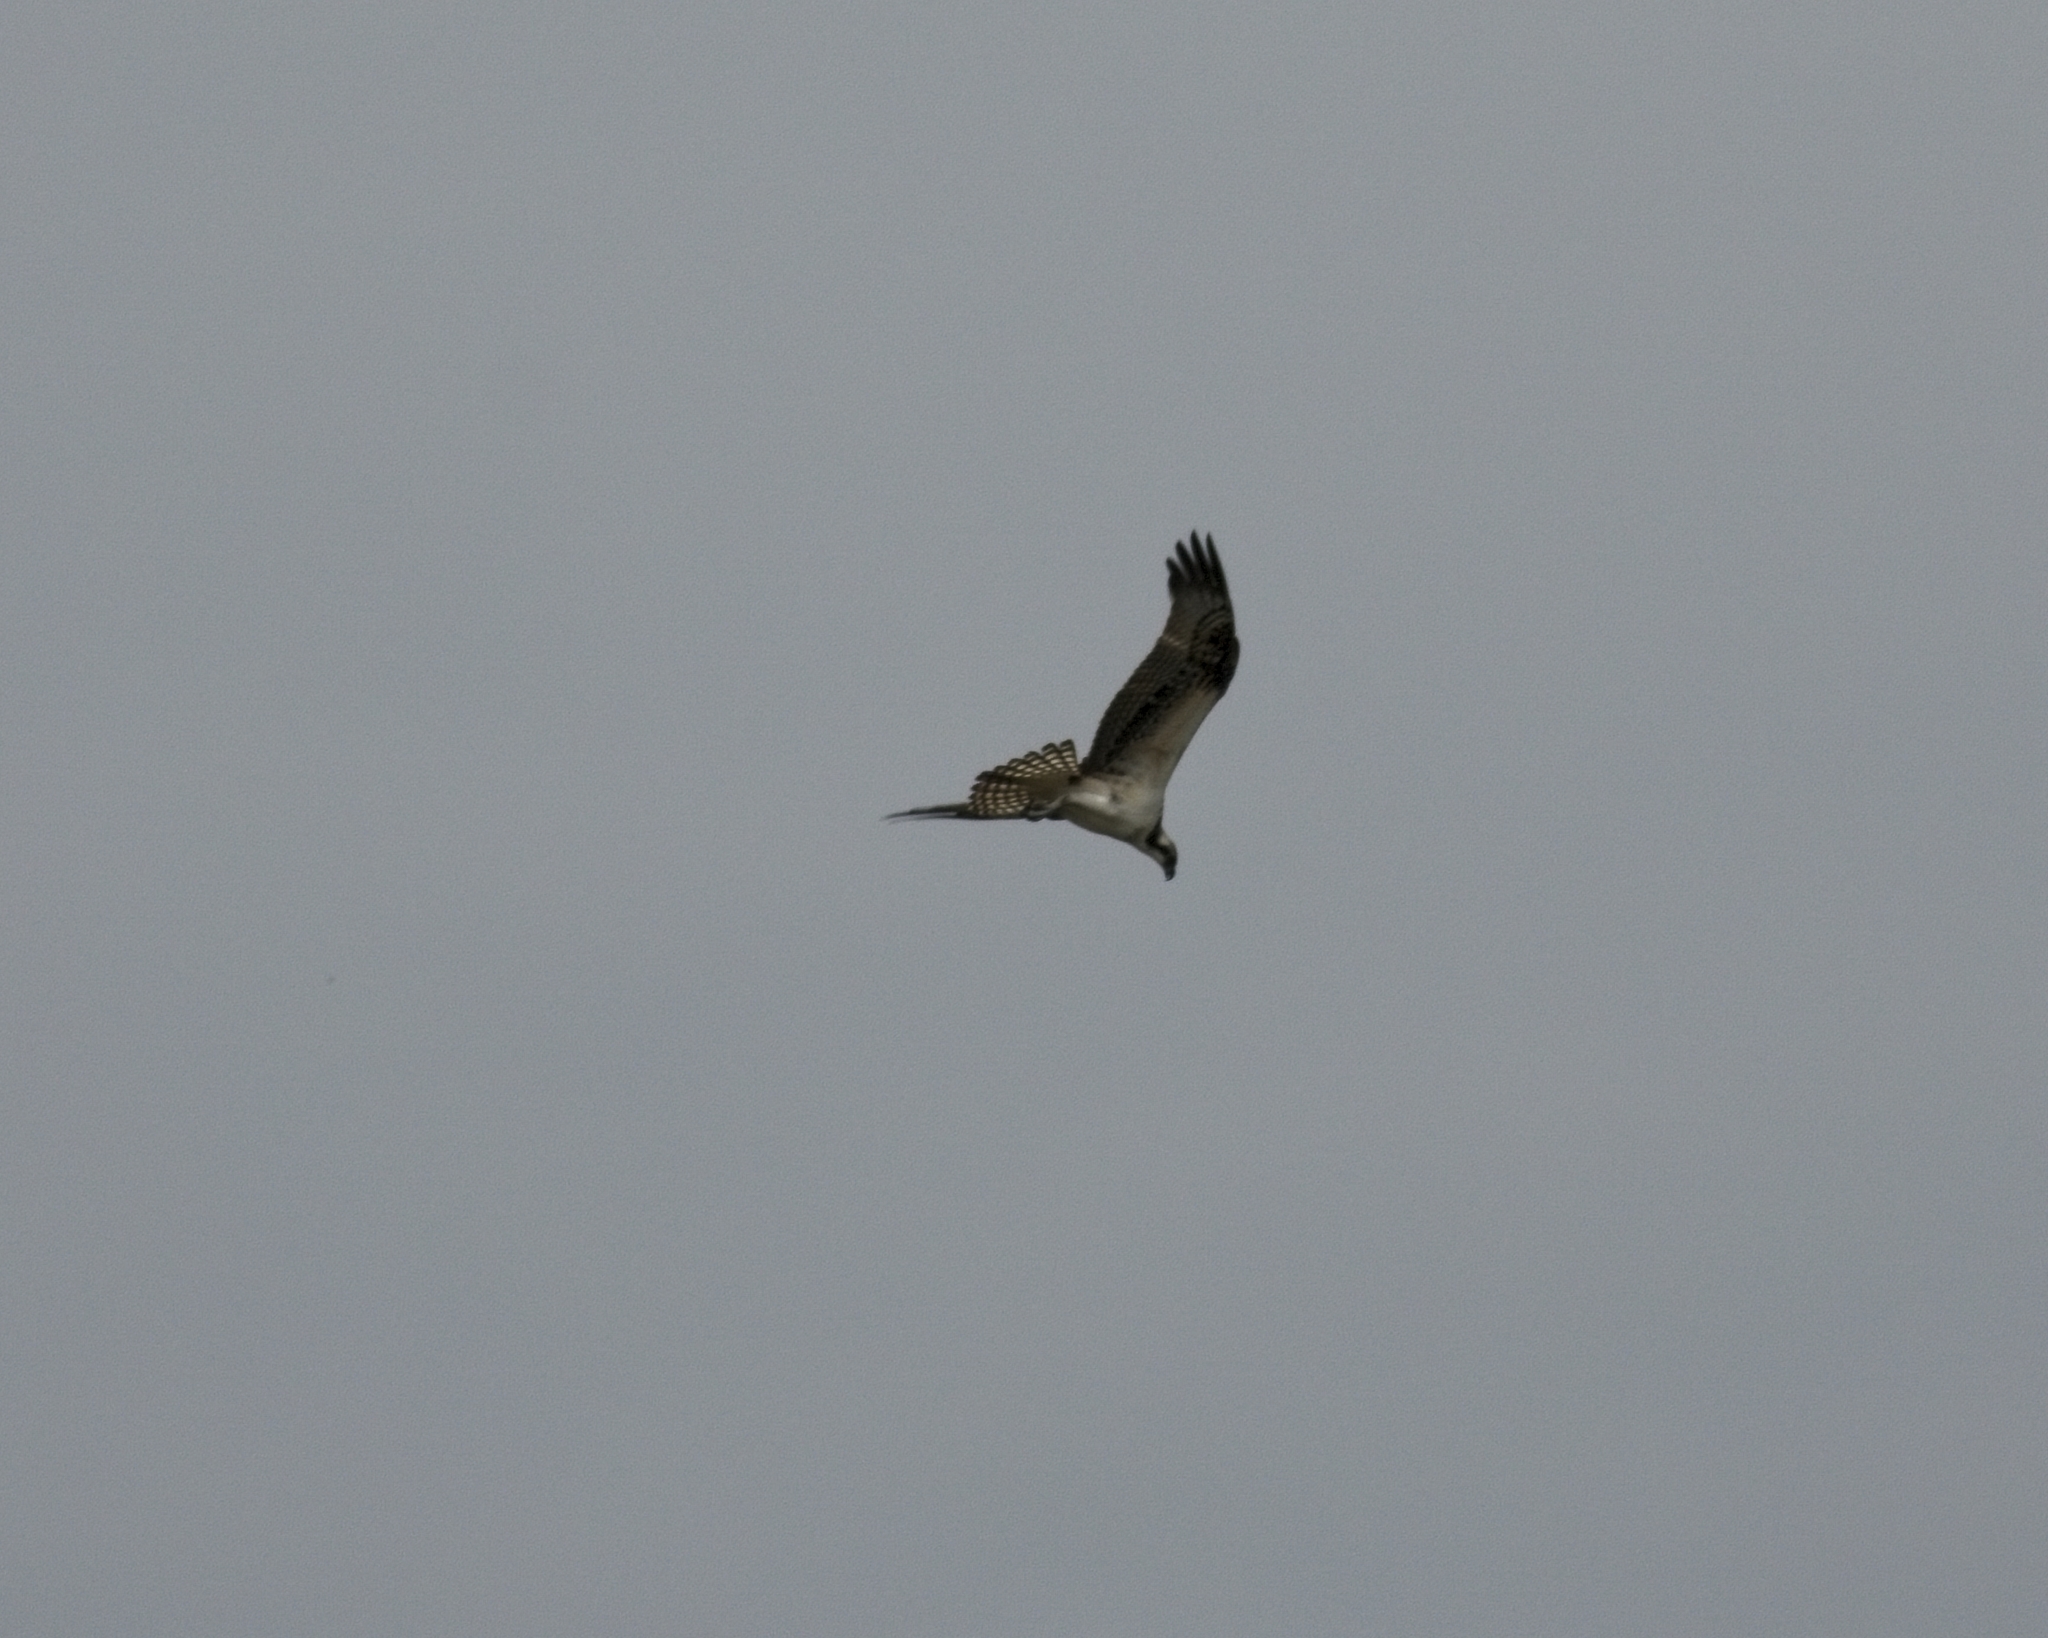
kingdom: Animalia
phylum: Chordata
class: Aves
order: Accipitriformes
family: Pandionidae
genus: Pandion
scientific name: Pandion haliaetus
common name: Osprey
